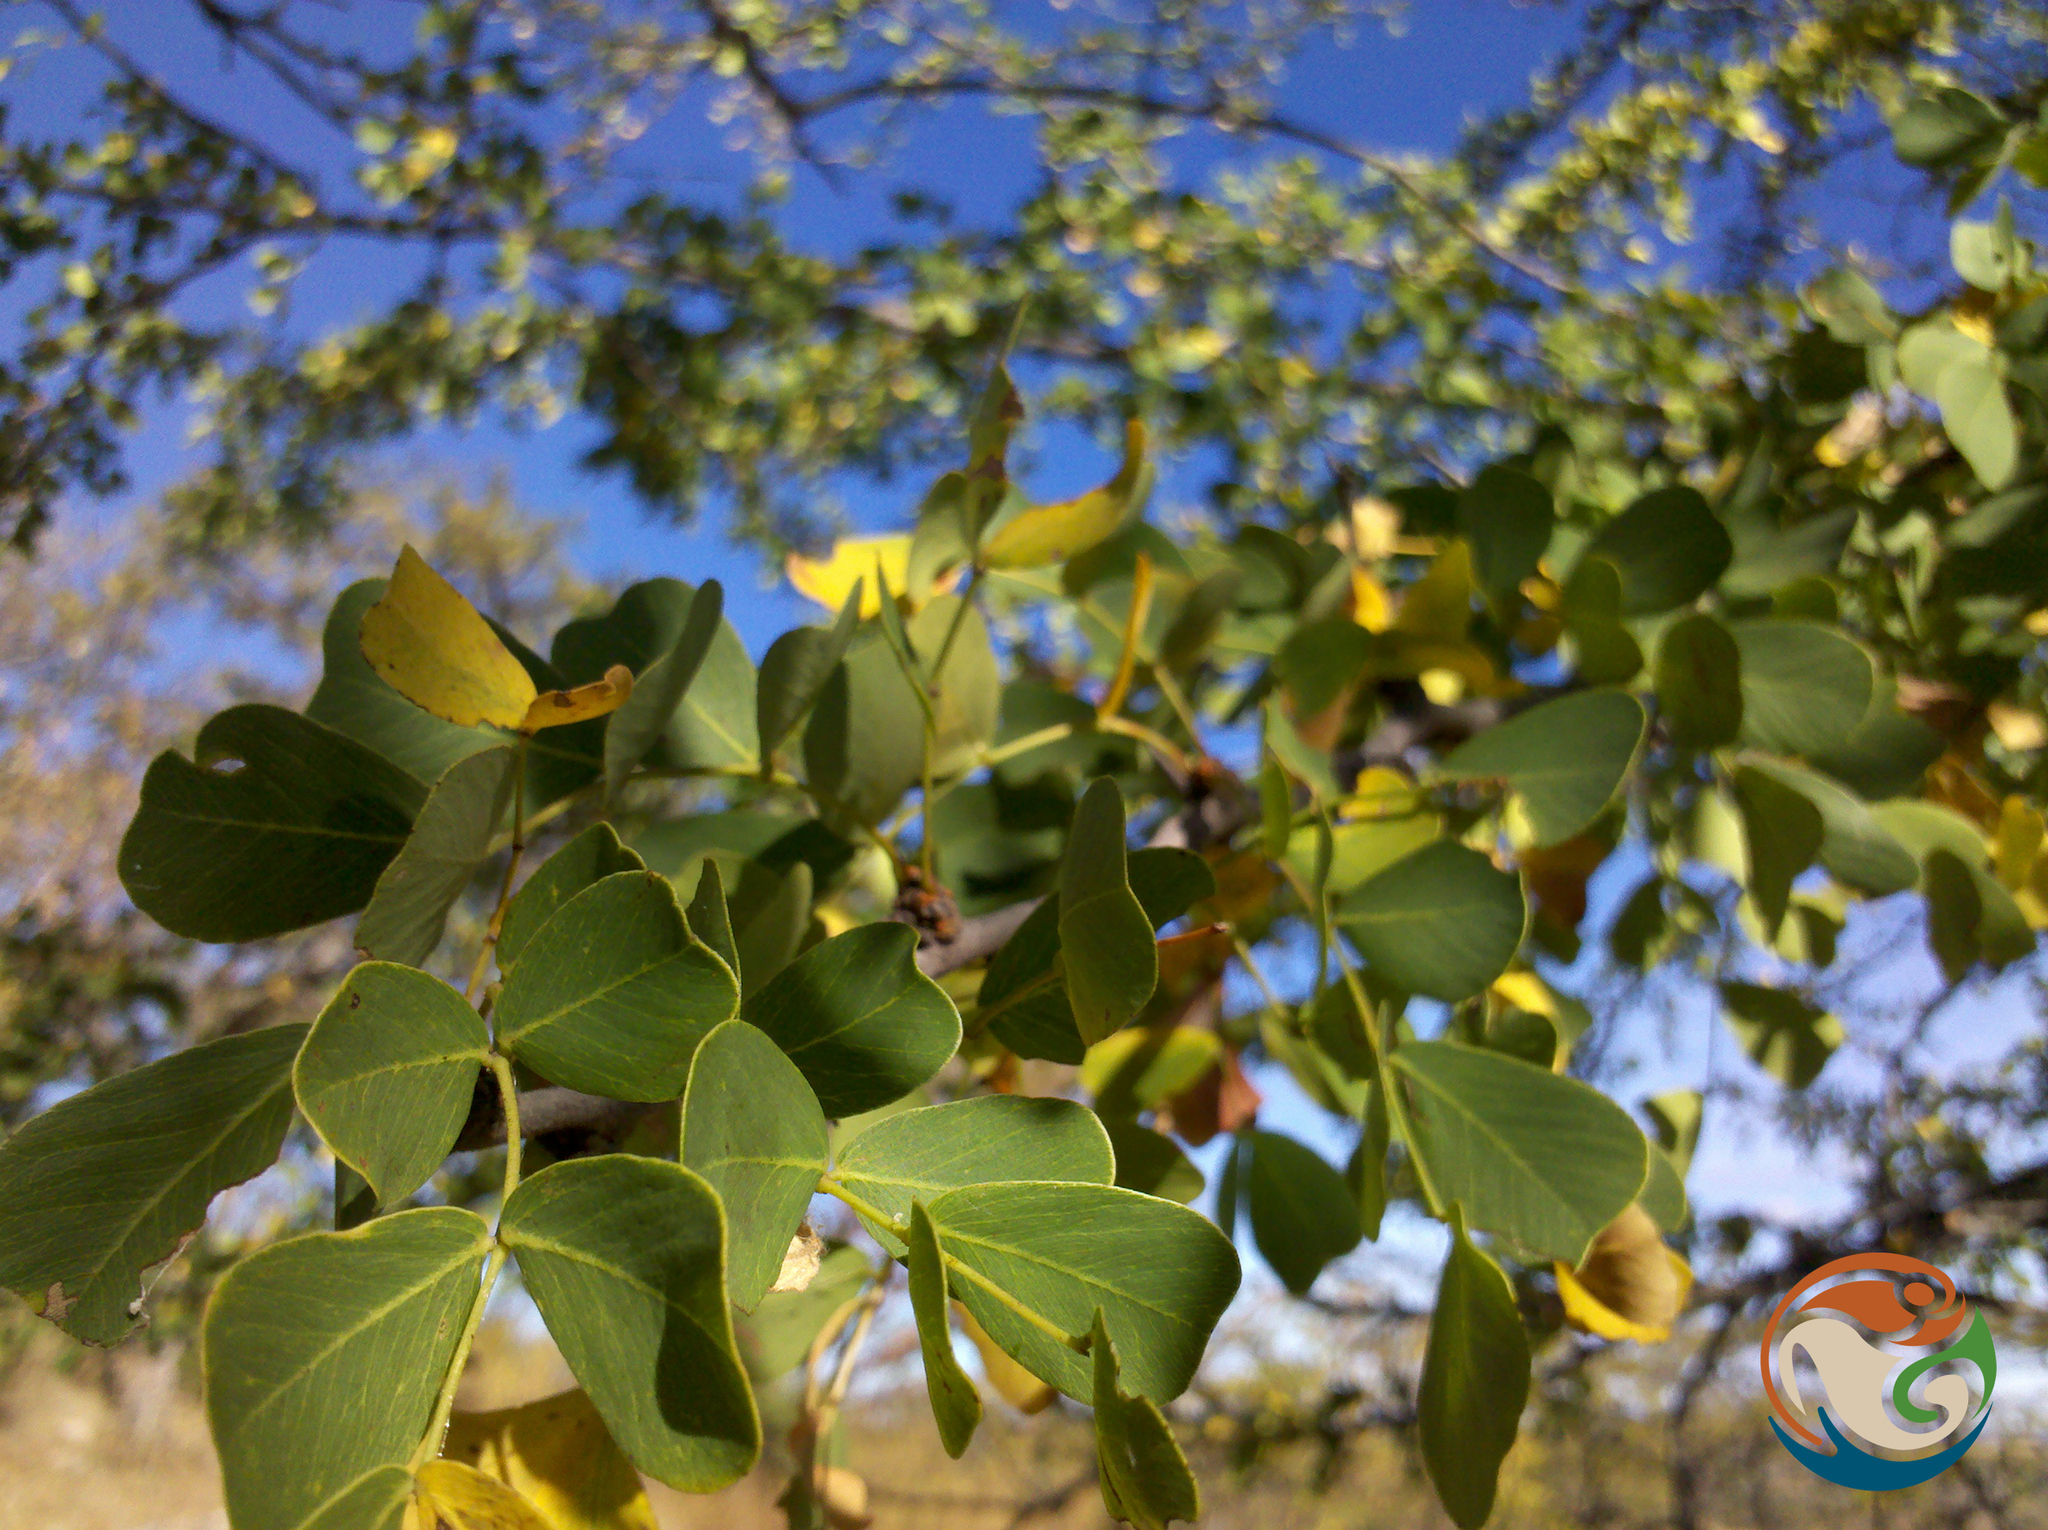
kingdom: Plantae
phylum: Tracheophyta
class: Magnoliopsida
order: Fabales
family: Fabaceae
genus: Haematoxylum
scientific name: Haematoxylum brasiletto
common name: Peachwood
